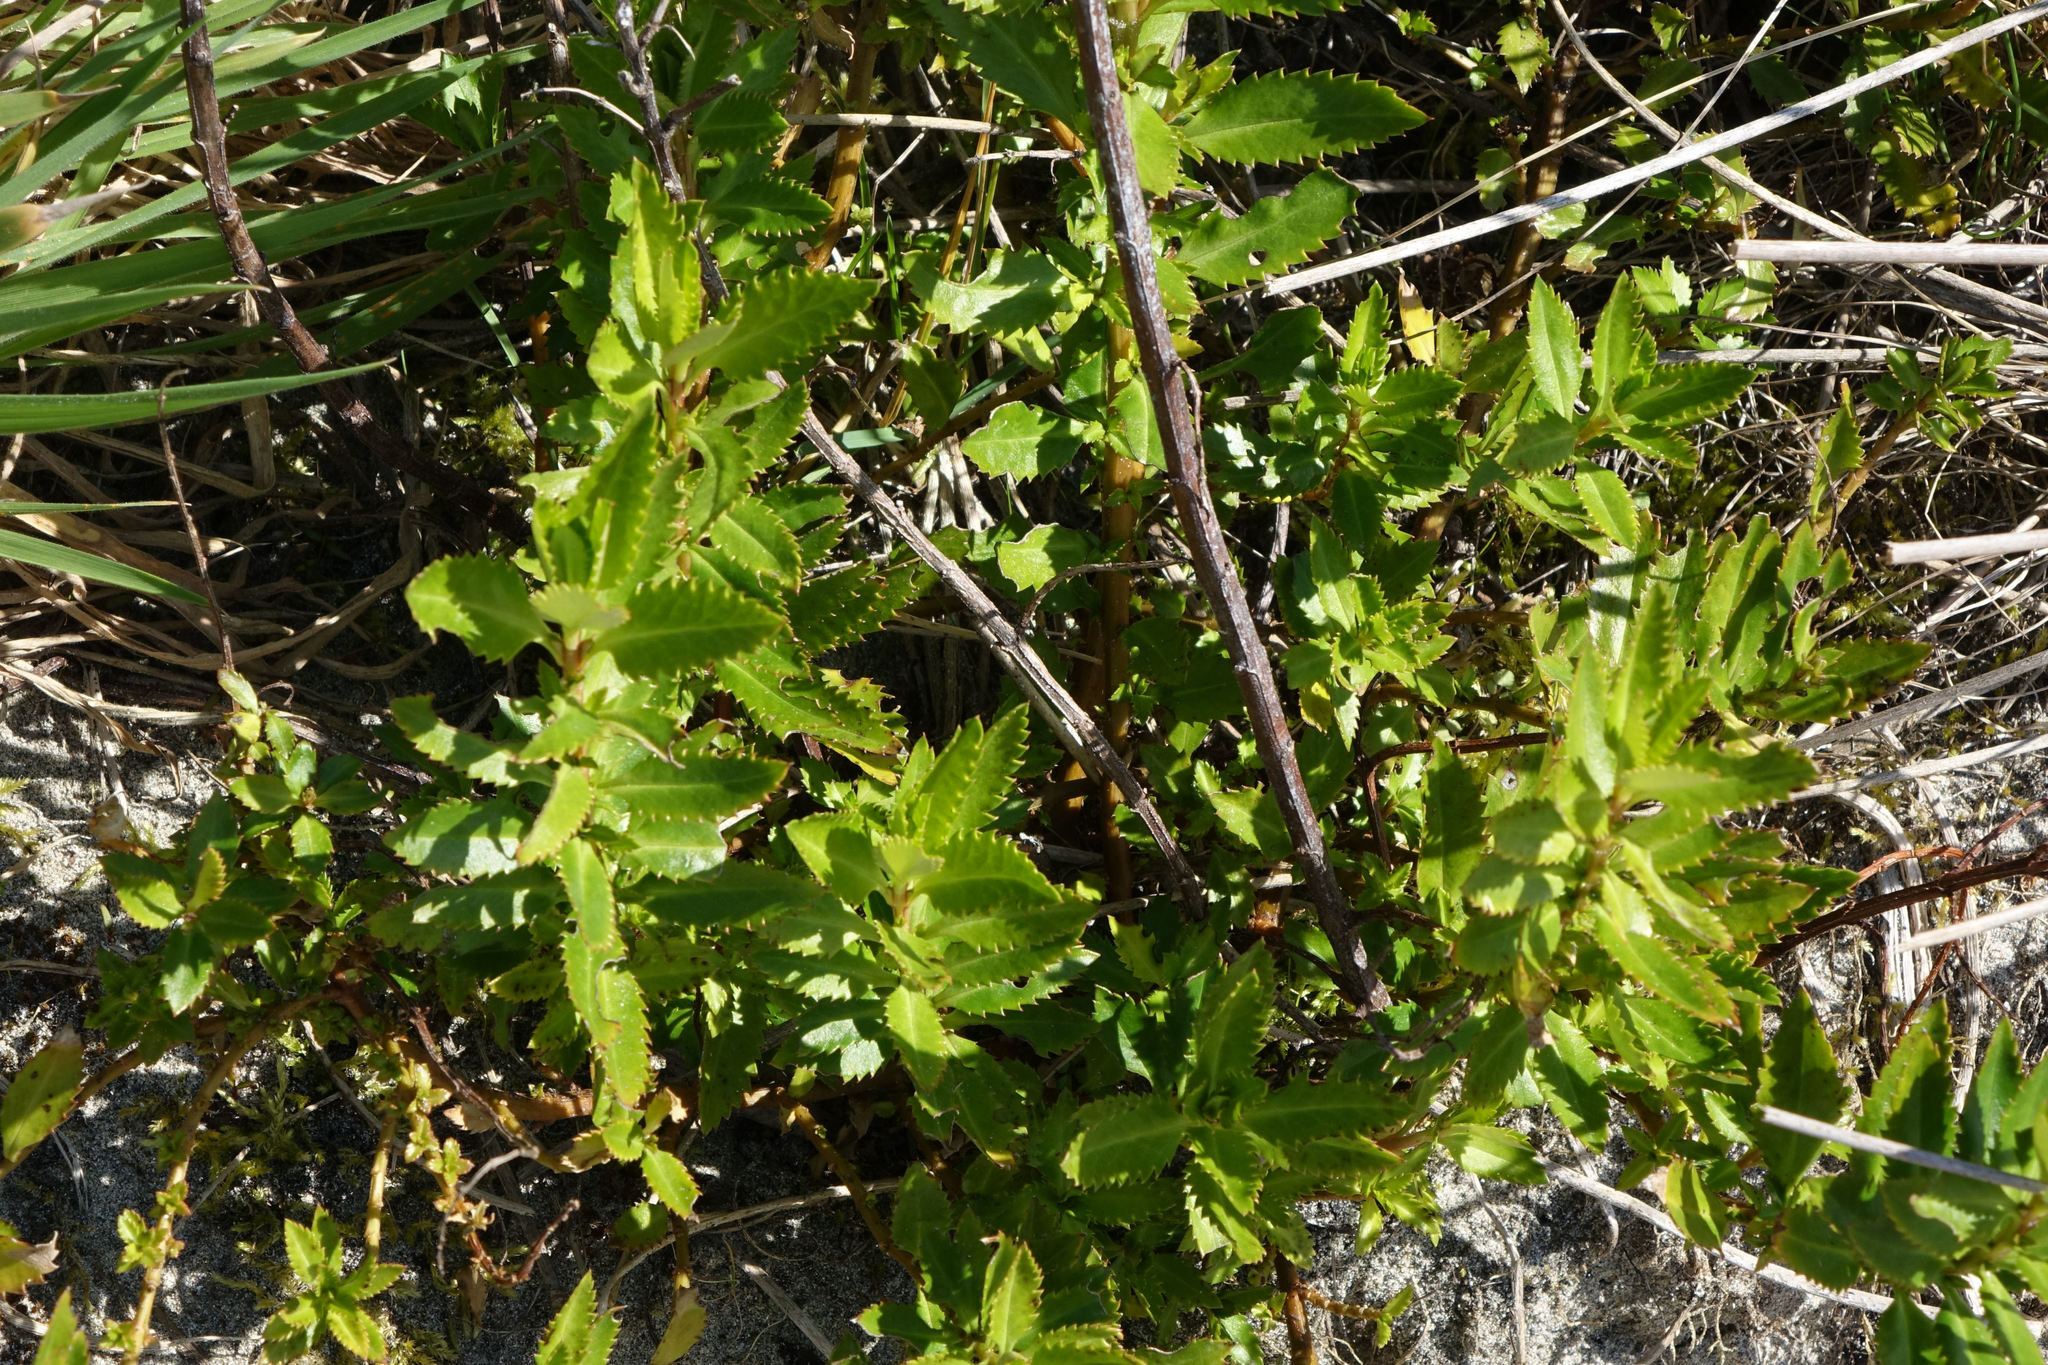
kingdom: Plantae
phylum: Tracheophyta
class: Magnoliopsida
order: Saxifragales
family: Haloragaceae
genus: Haloragis
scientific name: Haloragis erecta
